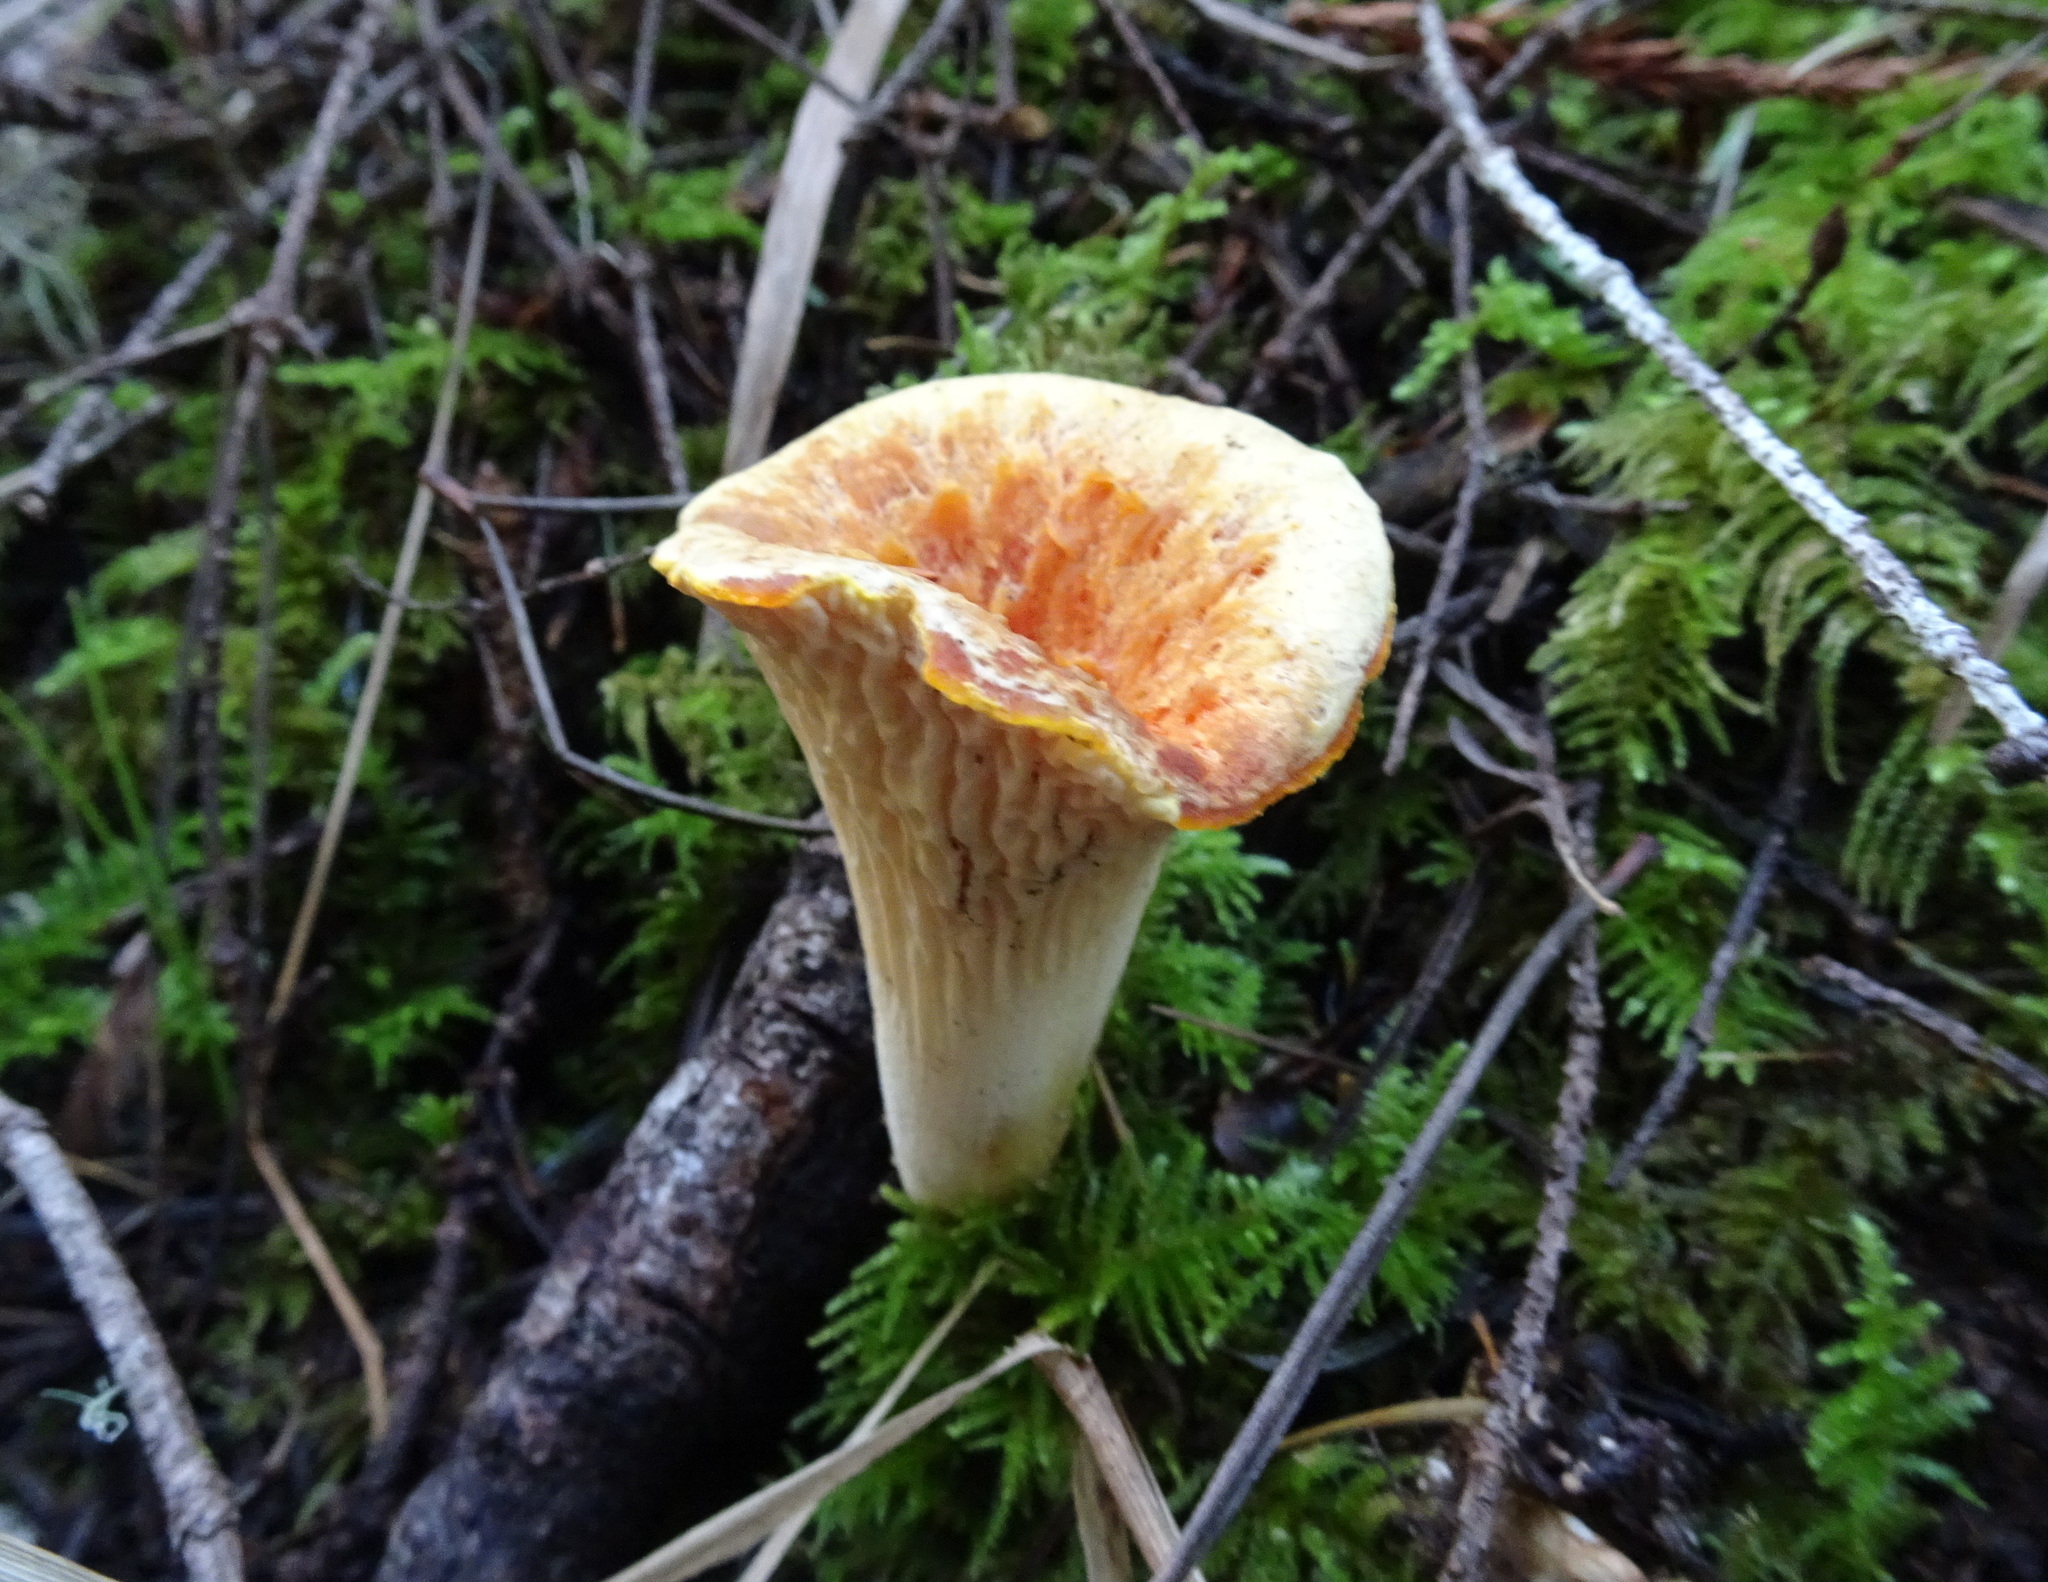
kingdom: Fungi
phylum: Basidiomycota
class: Agaricomycetes
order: Gomphales
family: Gomphaceae
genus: Turbinellus
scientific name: Turbinellus floccosus
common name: Scaly chanterelle
